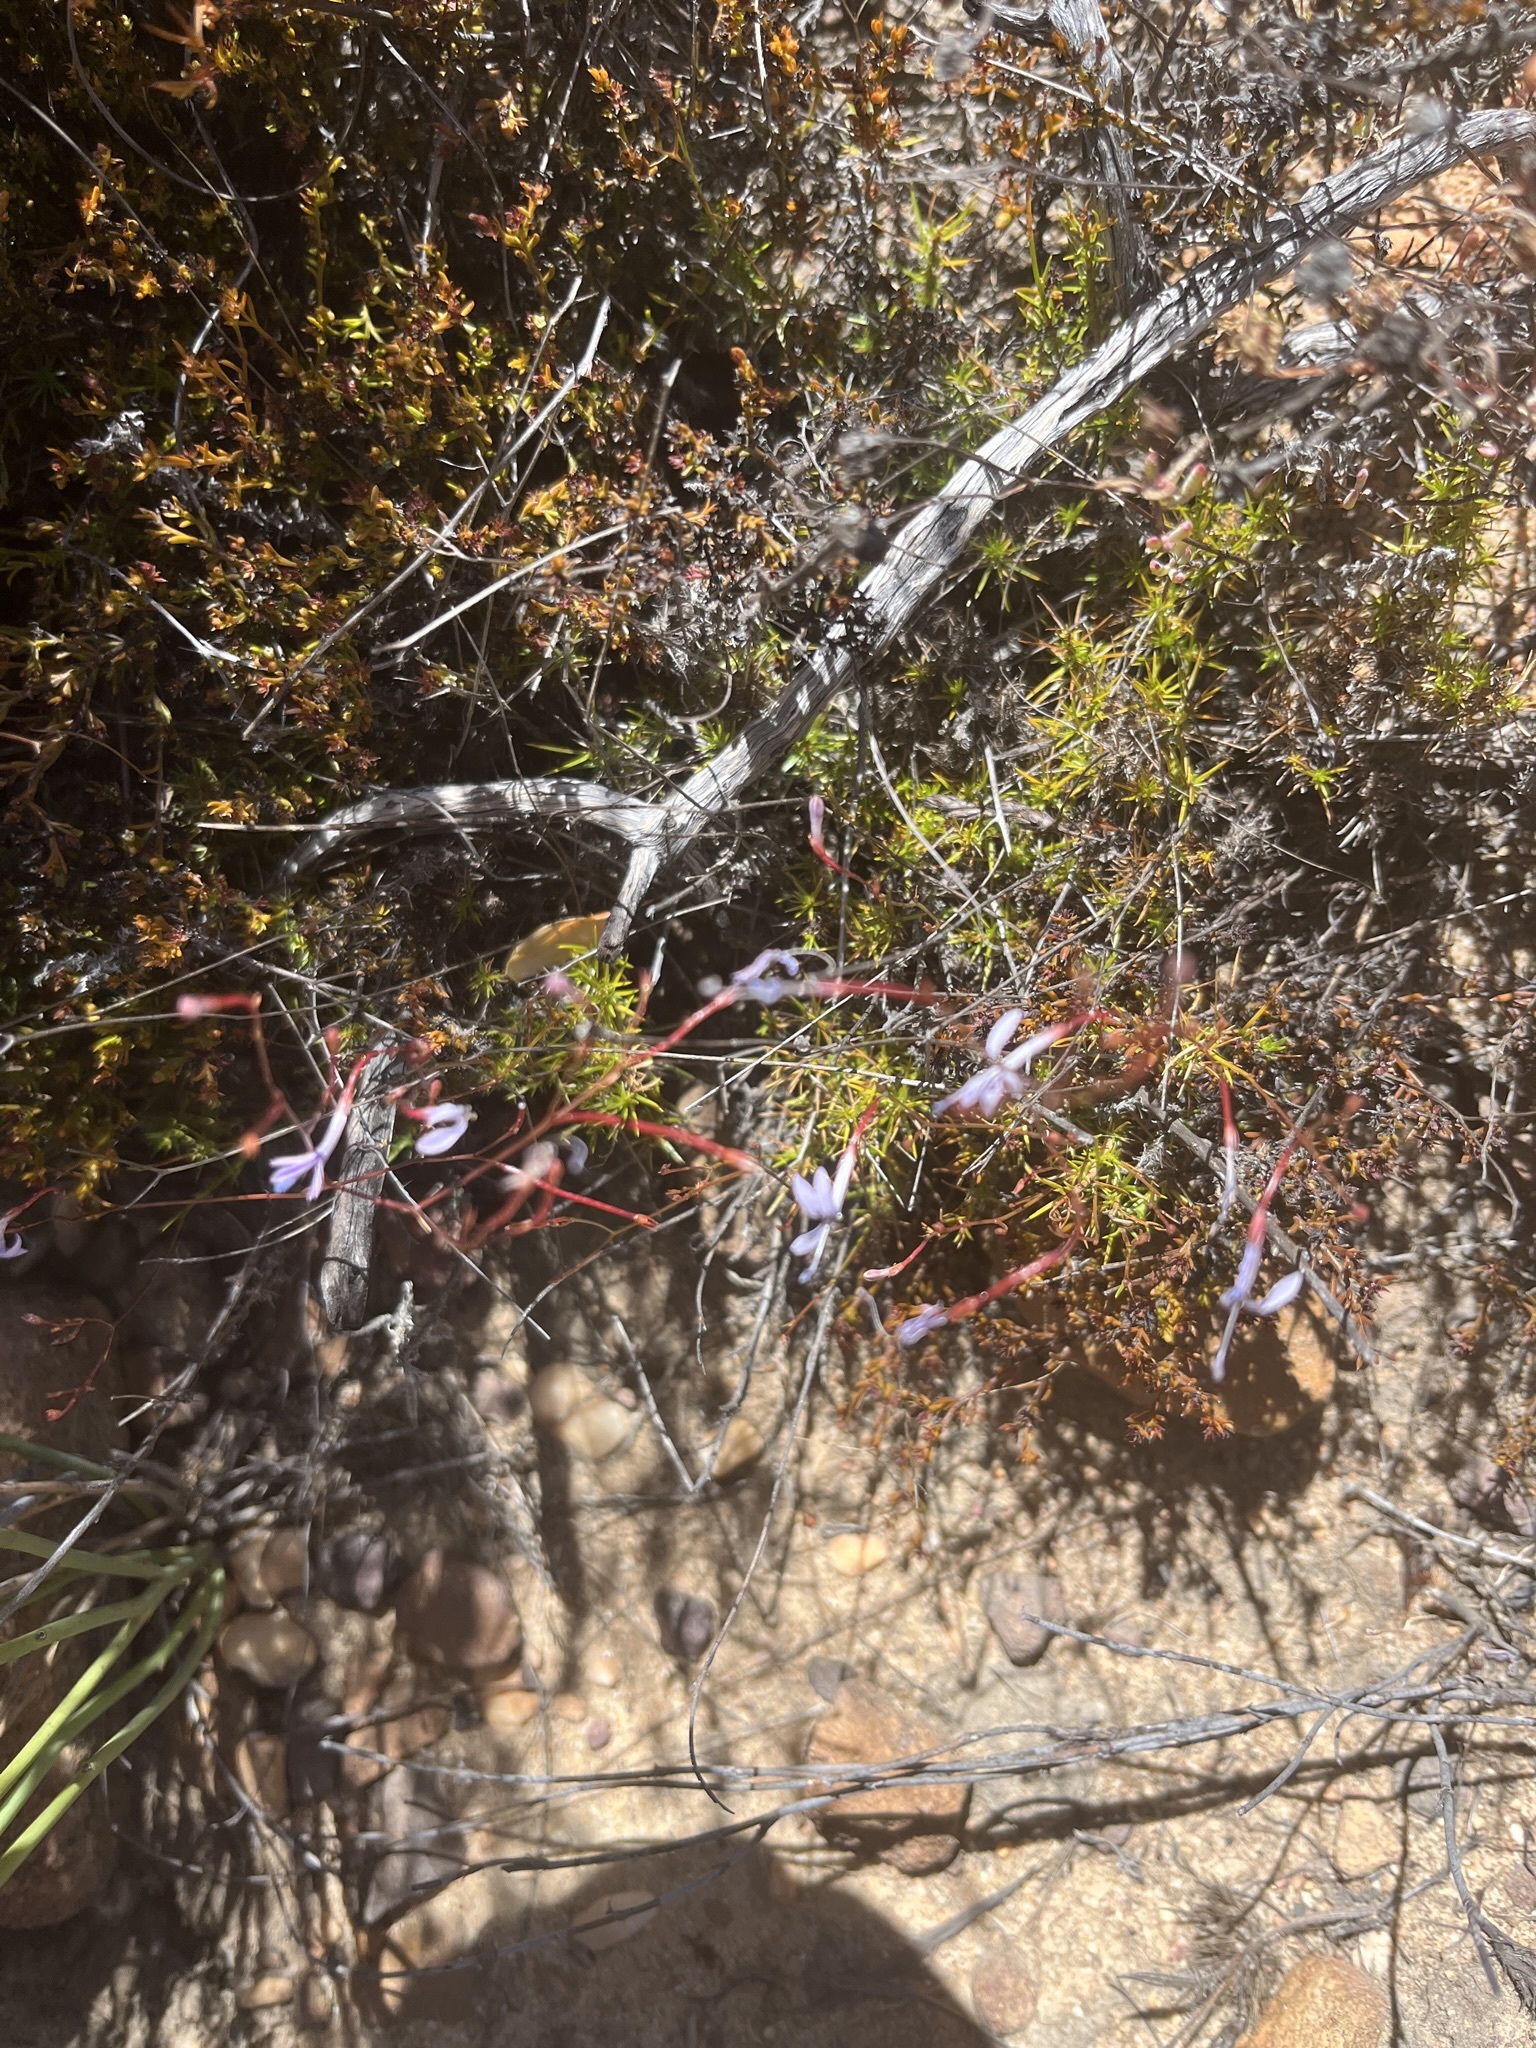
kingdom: Plantae
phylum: Tracheophyta
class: Magnoliopsida
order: Asterales
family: Campanulaceae
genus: Prismatocarpus
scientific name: Prismatocarpus diffusus
